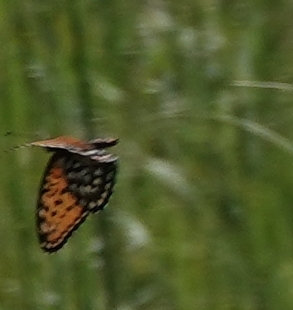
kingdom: Animalia
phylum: Arthropoda
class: Insecta
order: Lepidoptera
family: Nymphalidae
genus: Speyeria
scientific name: Speyeria idalia
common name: Regal fritillary
